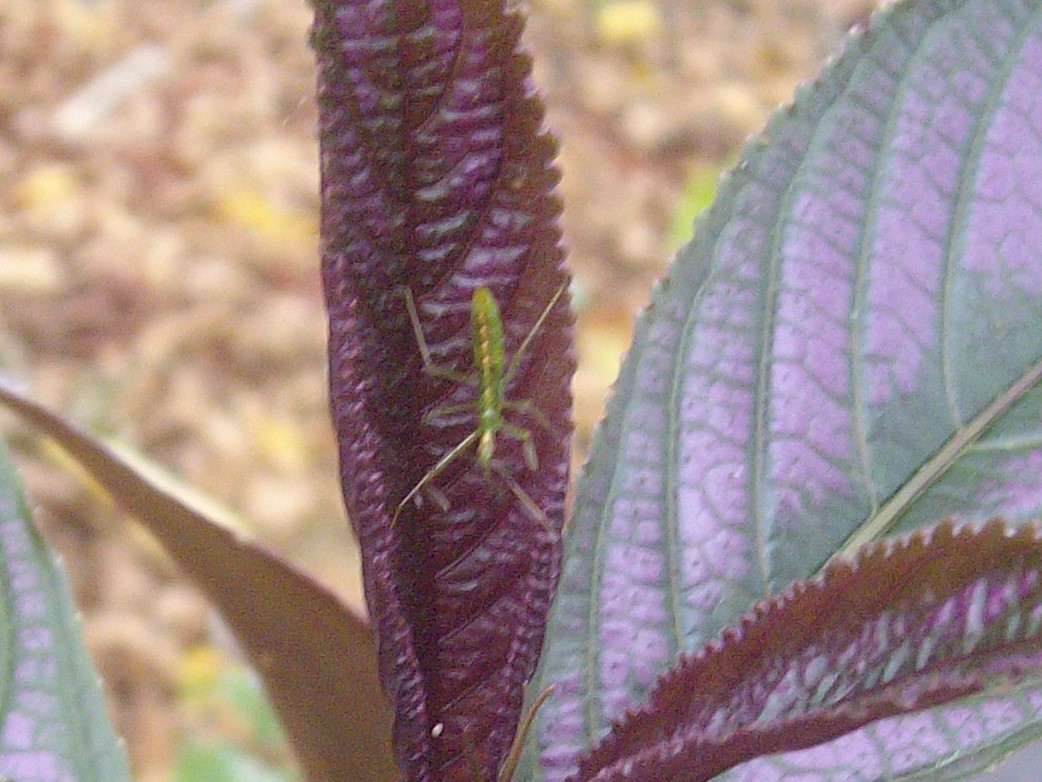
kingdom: Animalia
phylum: Arthropoda
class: Insecta
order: Hemiptera
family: Reduviidae
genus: Zelus
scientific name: Zelus luridus
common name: Pale green assassin bug
